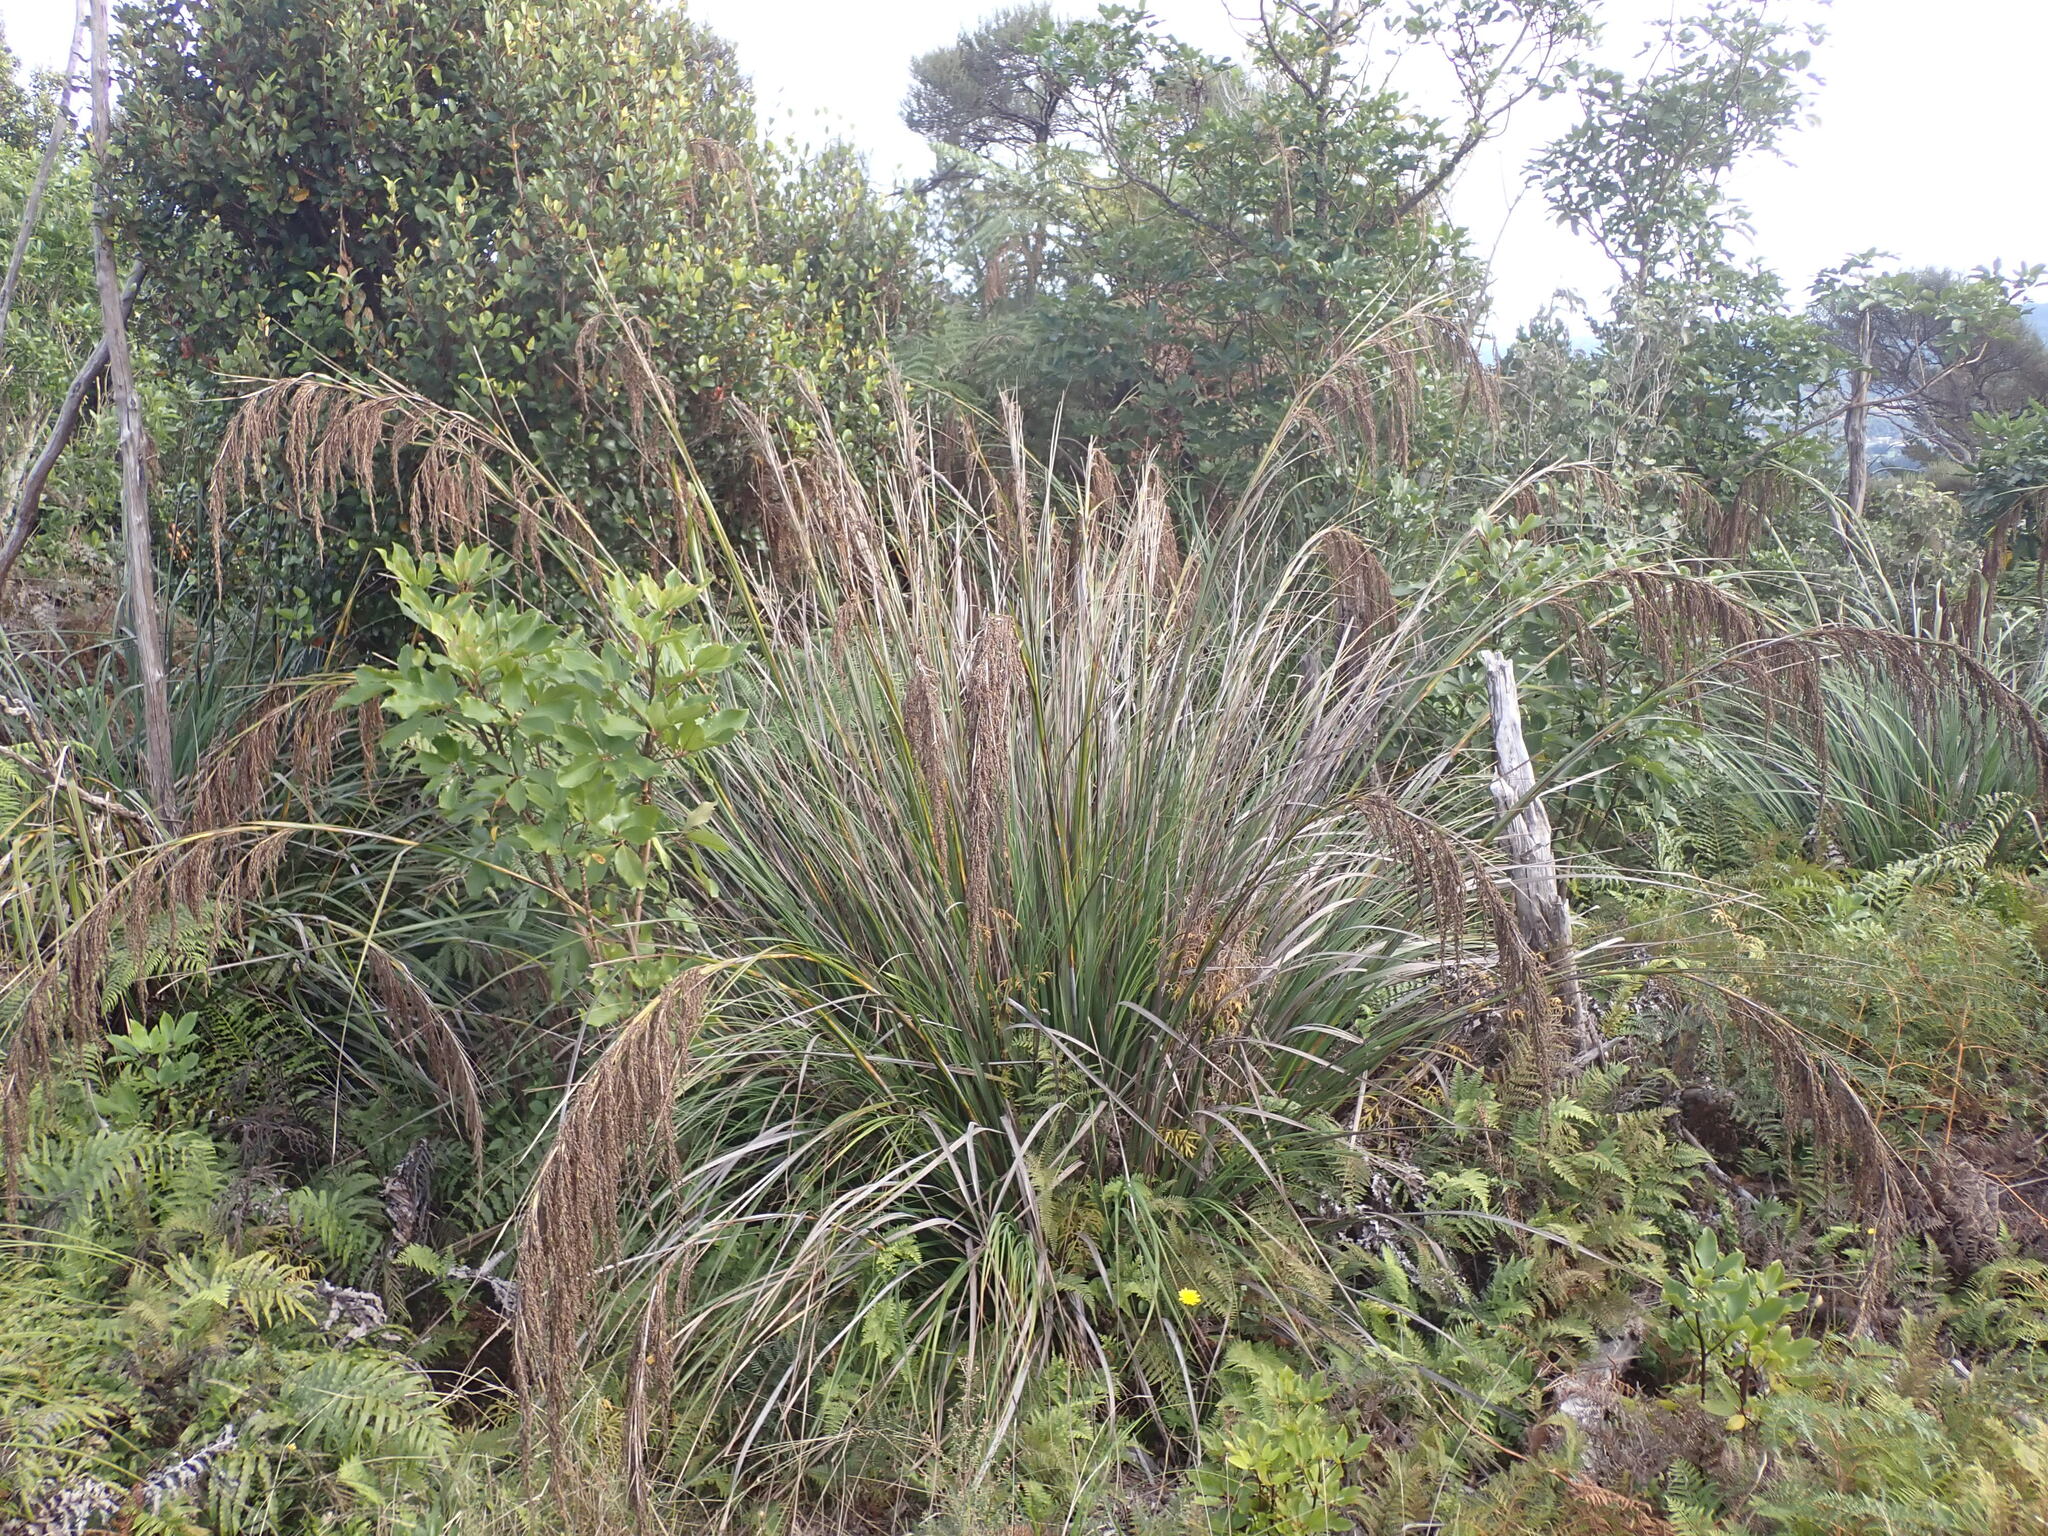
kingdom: Plantae
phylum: Tracheophyta
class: Liliopsida
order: Poales
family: Cyperaceae
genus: Gahnia
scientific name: Gahnia setifolia
